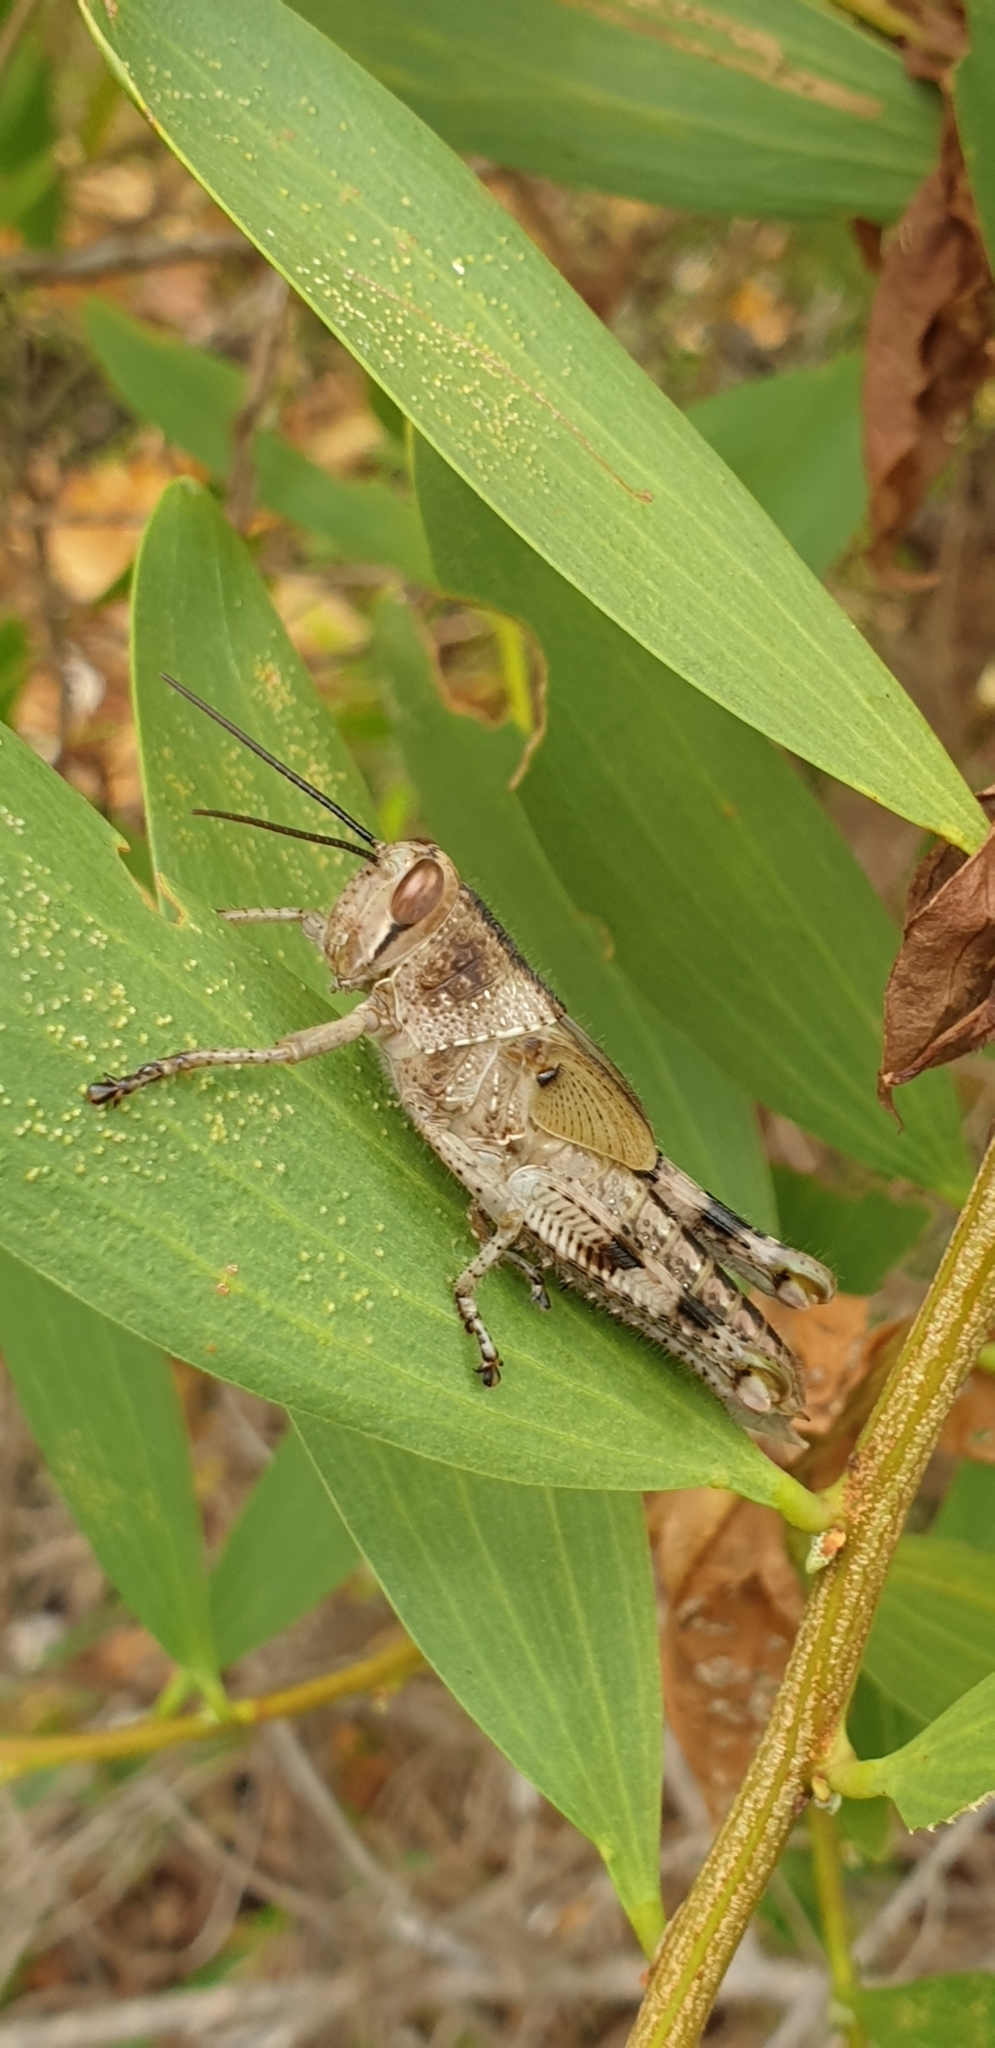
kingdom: Animalia
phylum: Arthropoda
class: Insecta
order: Orthoptera
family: Acrididae
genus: Valanga
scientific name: Valanga irregularis
